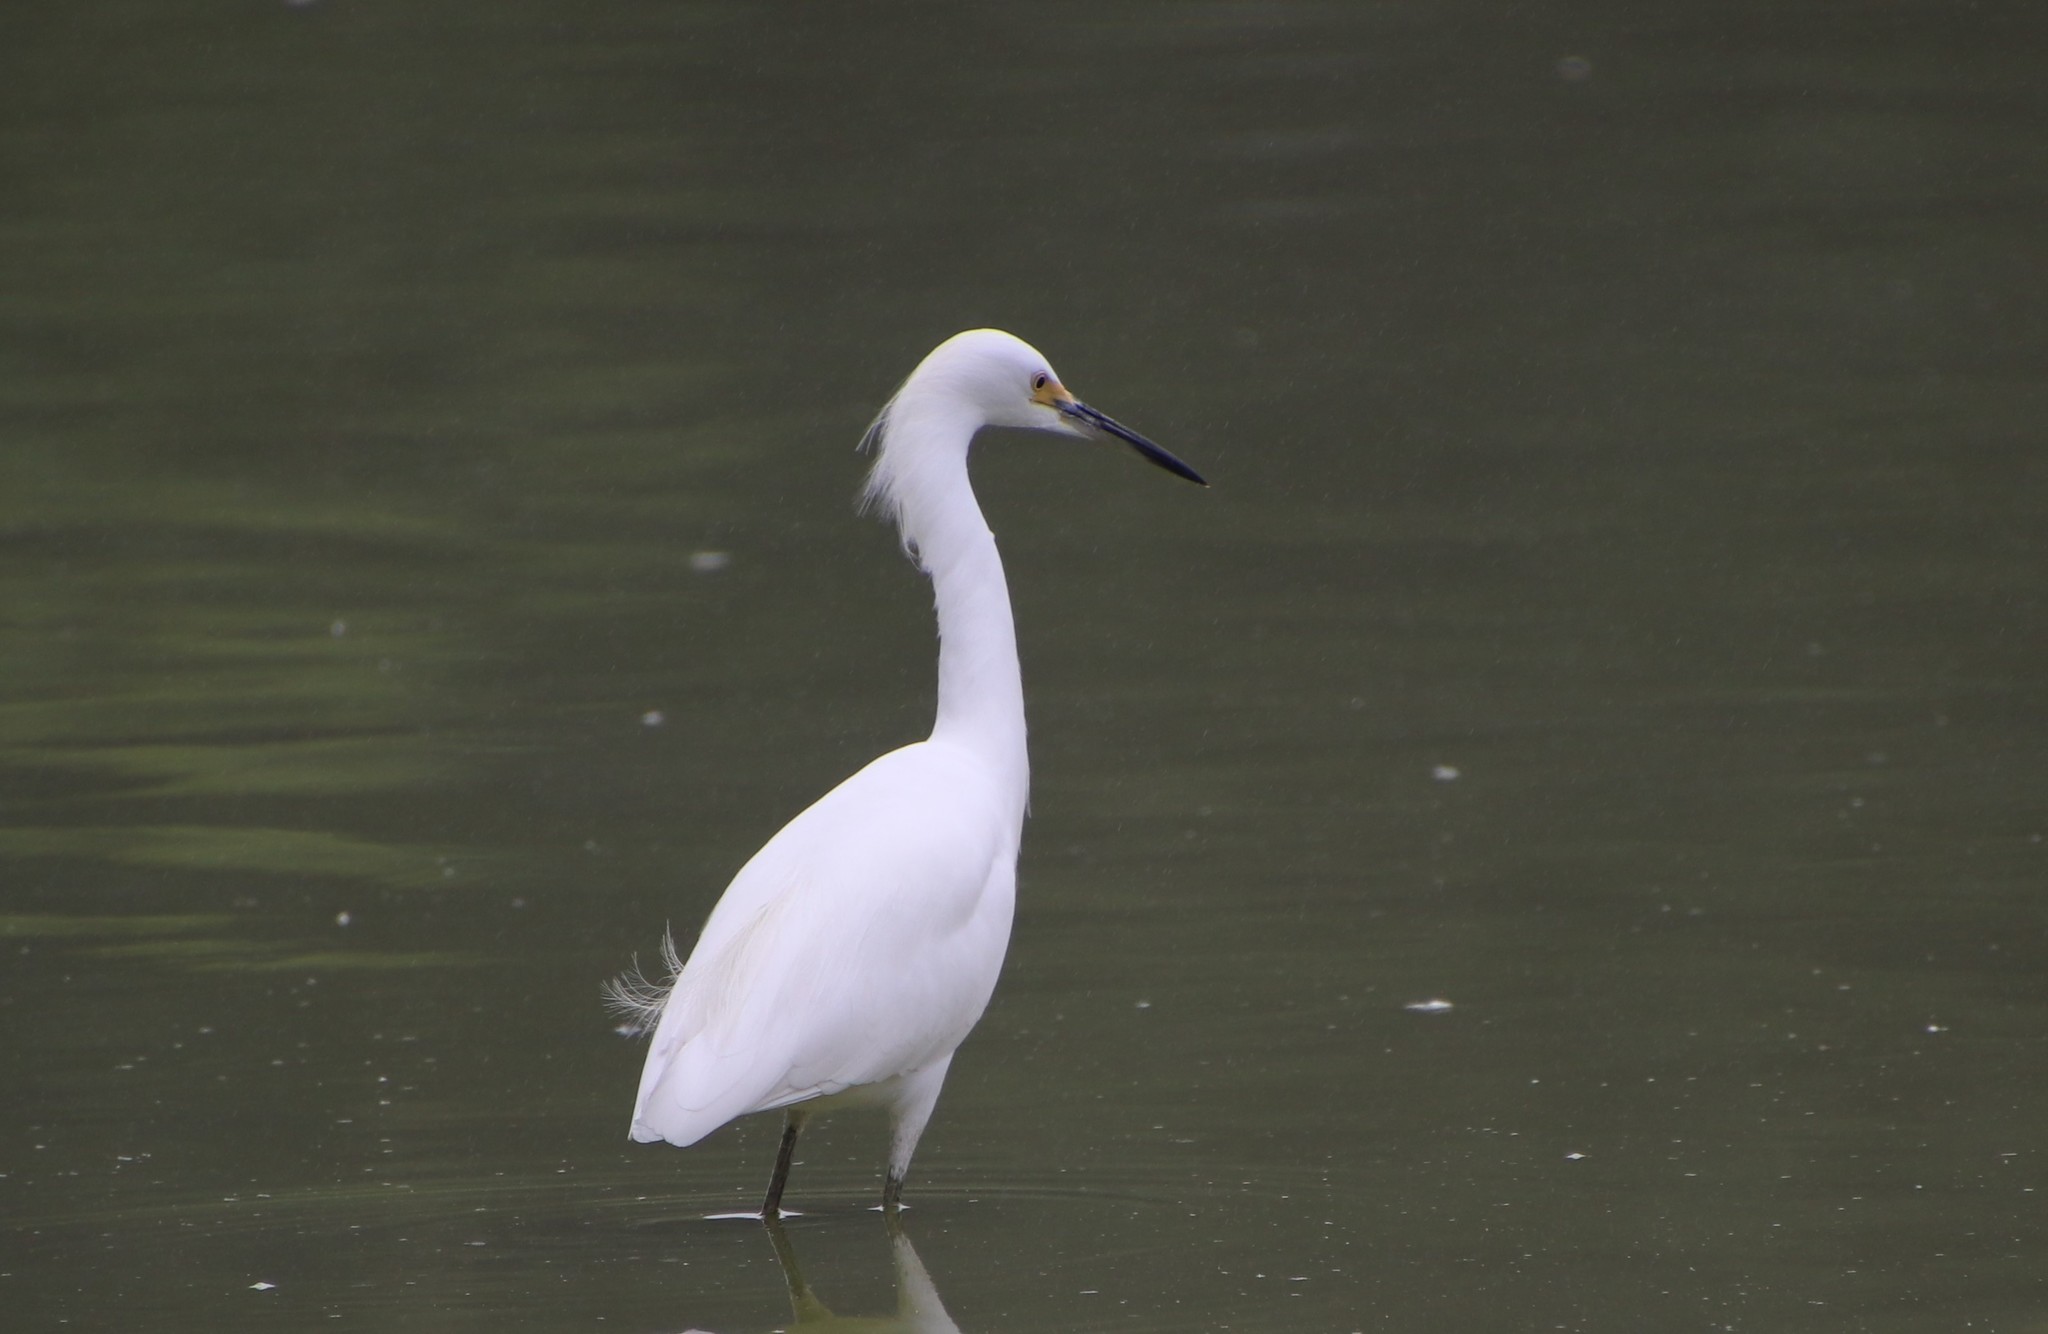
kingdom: Animalia
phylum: Chordata
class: Aves
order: Pelecaniformes
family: Ardeidae
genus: Egretta
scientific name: Egretta thula
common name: Snowy egret
